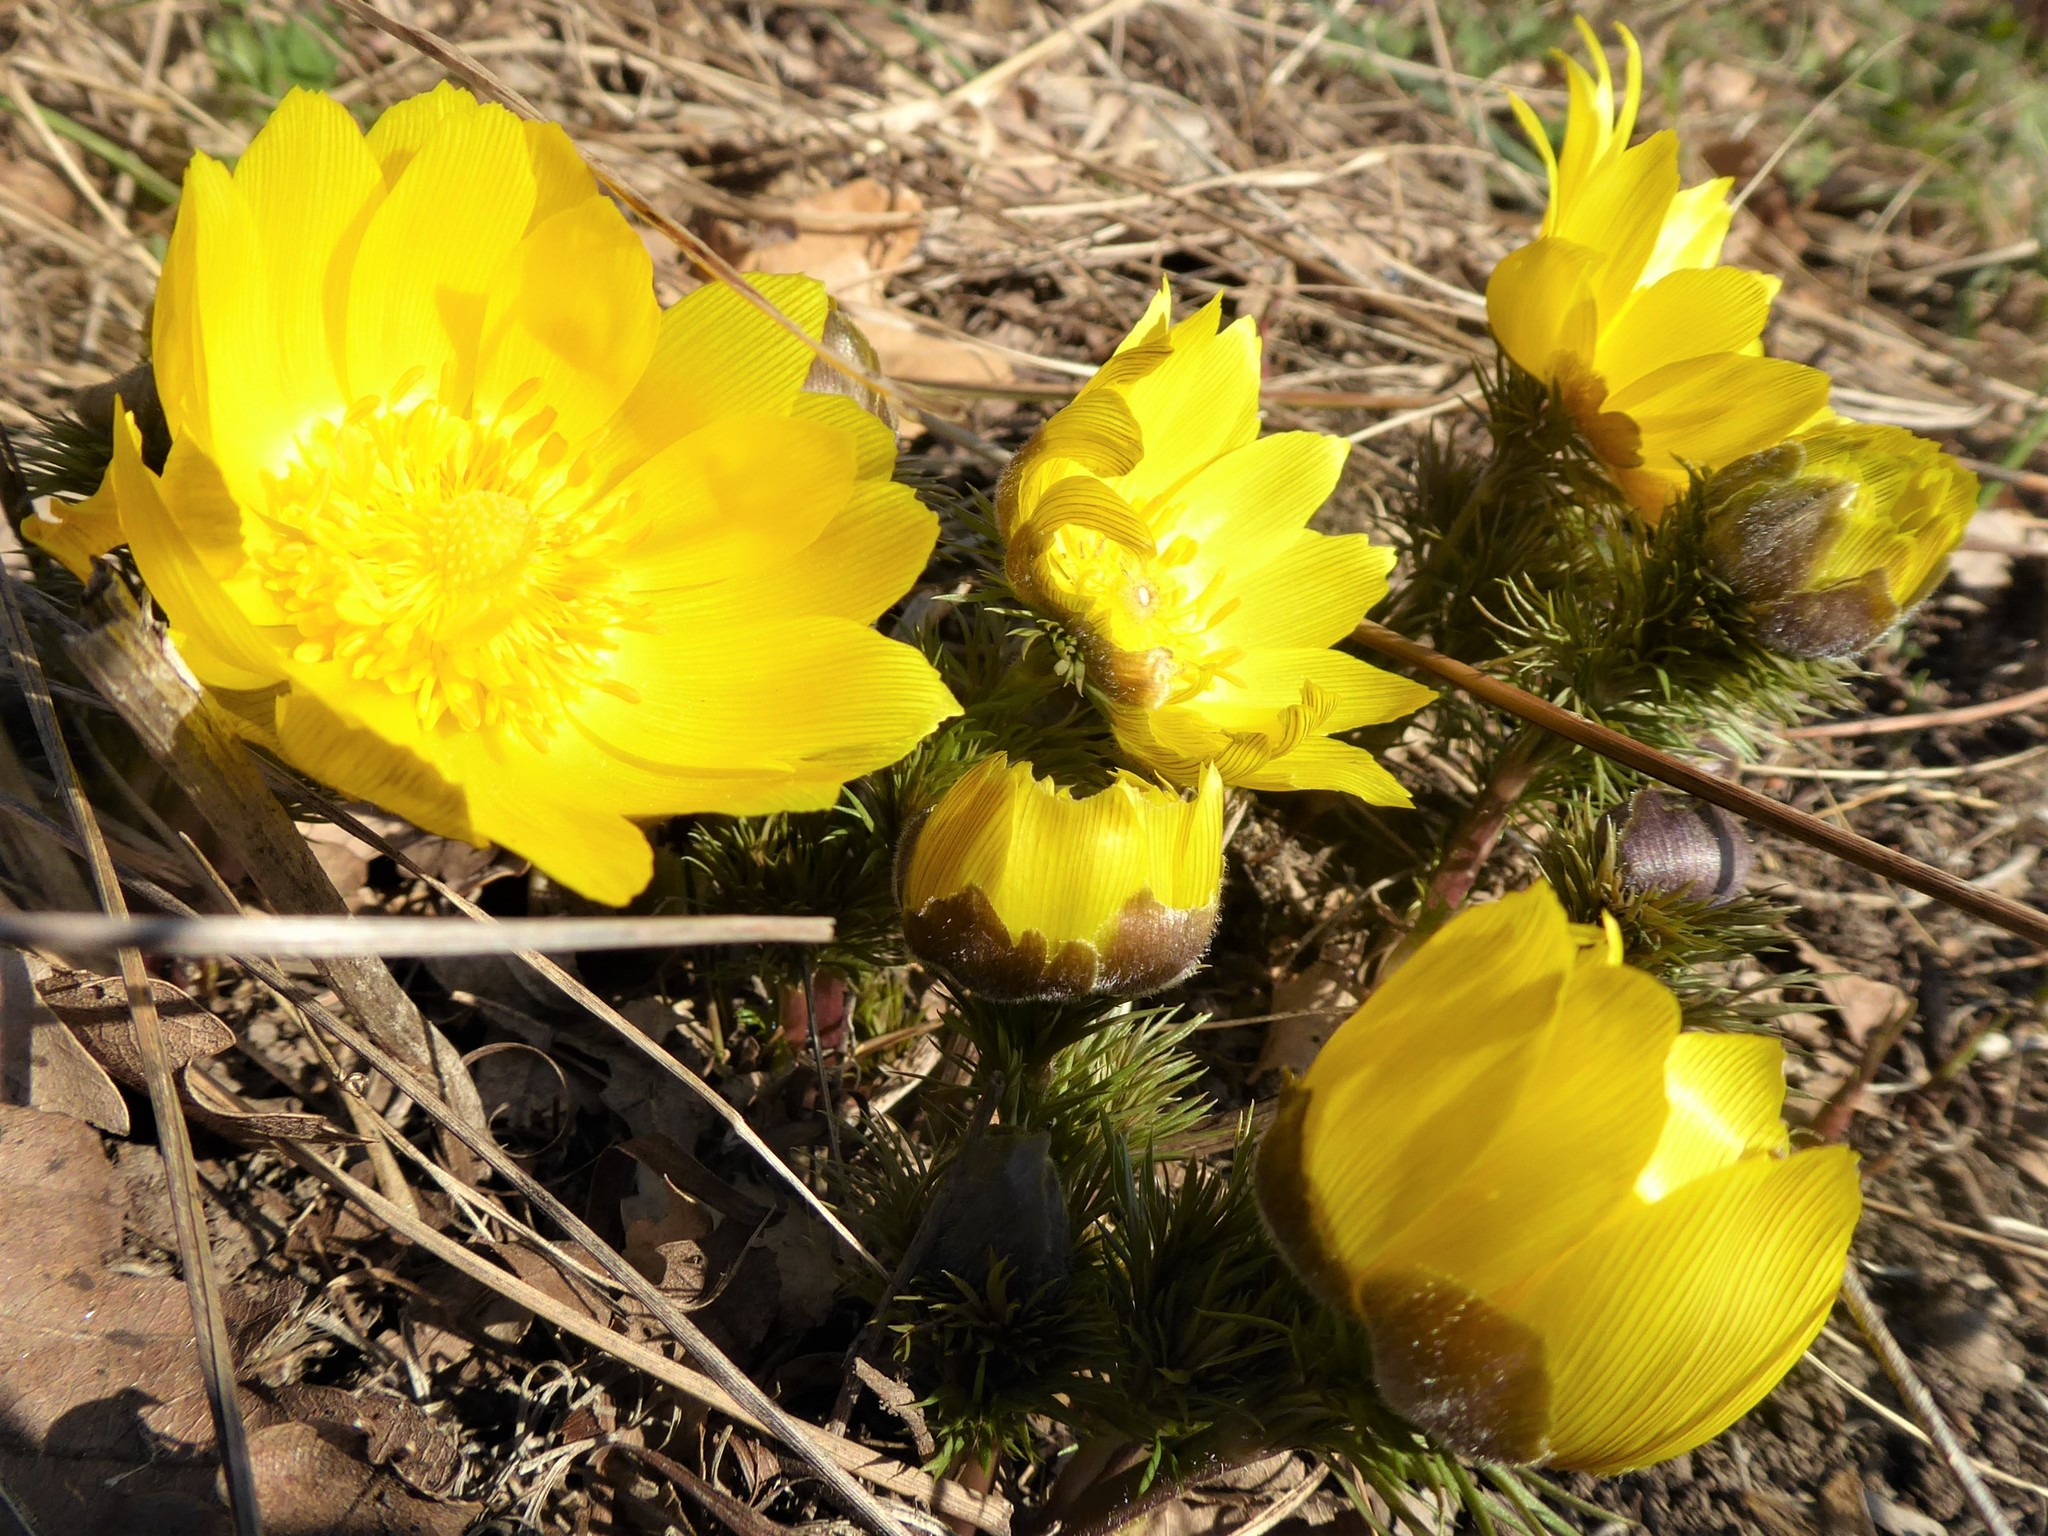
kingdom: Plantae
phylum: Tracheophyta
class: Magnoliopsida
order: Ranunculales
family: Ranunculaceae
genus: Adonis
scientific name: Adonis vernalis
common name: Yellow pheasants-eye
